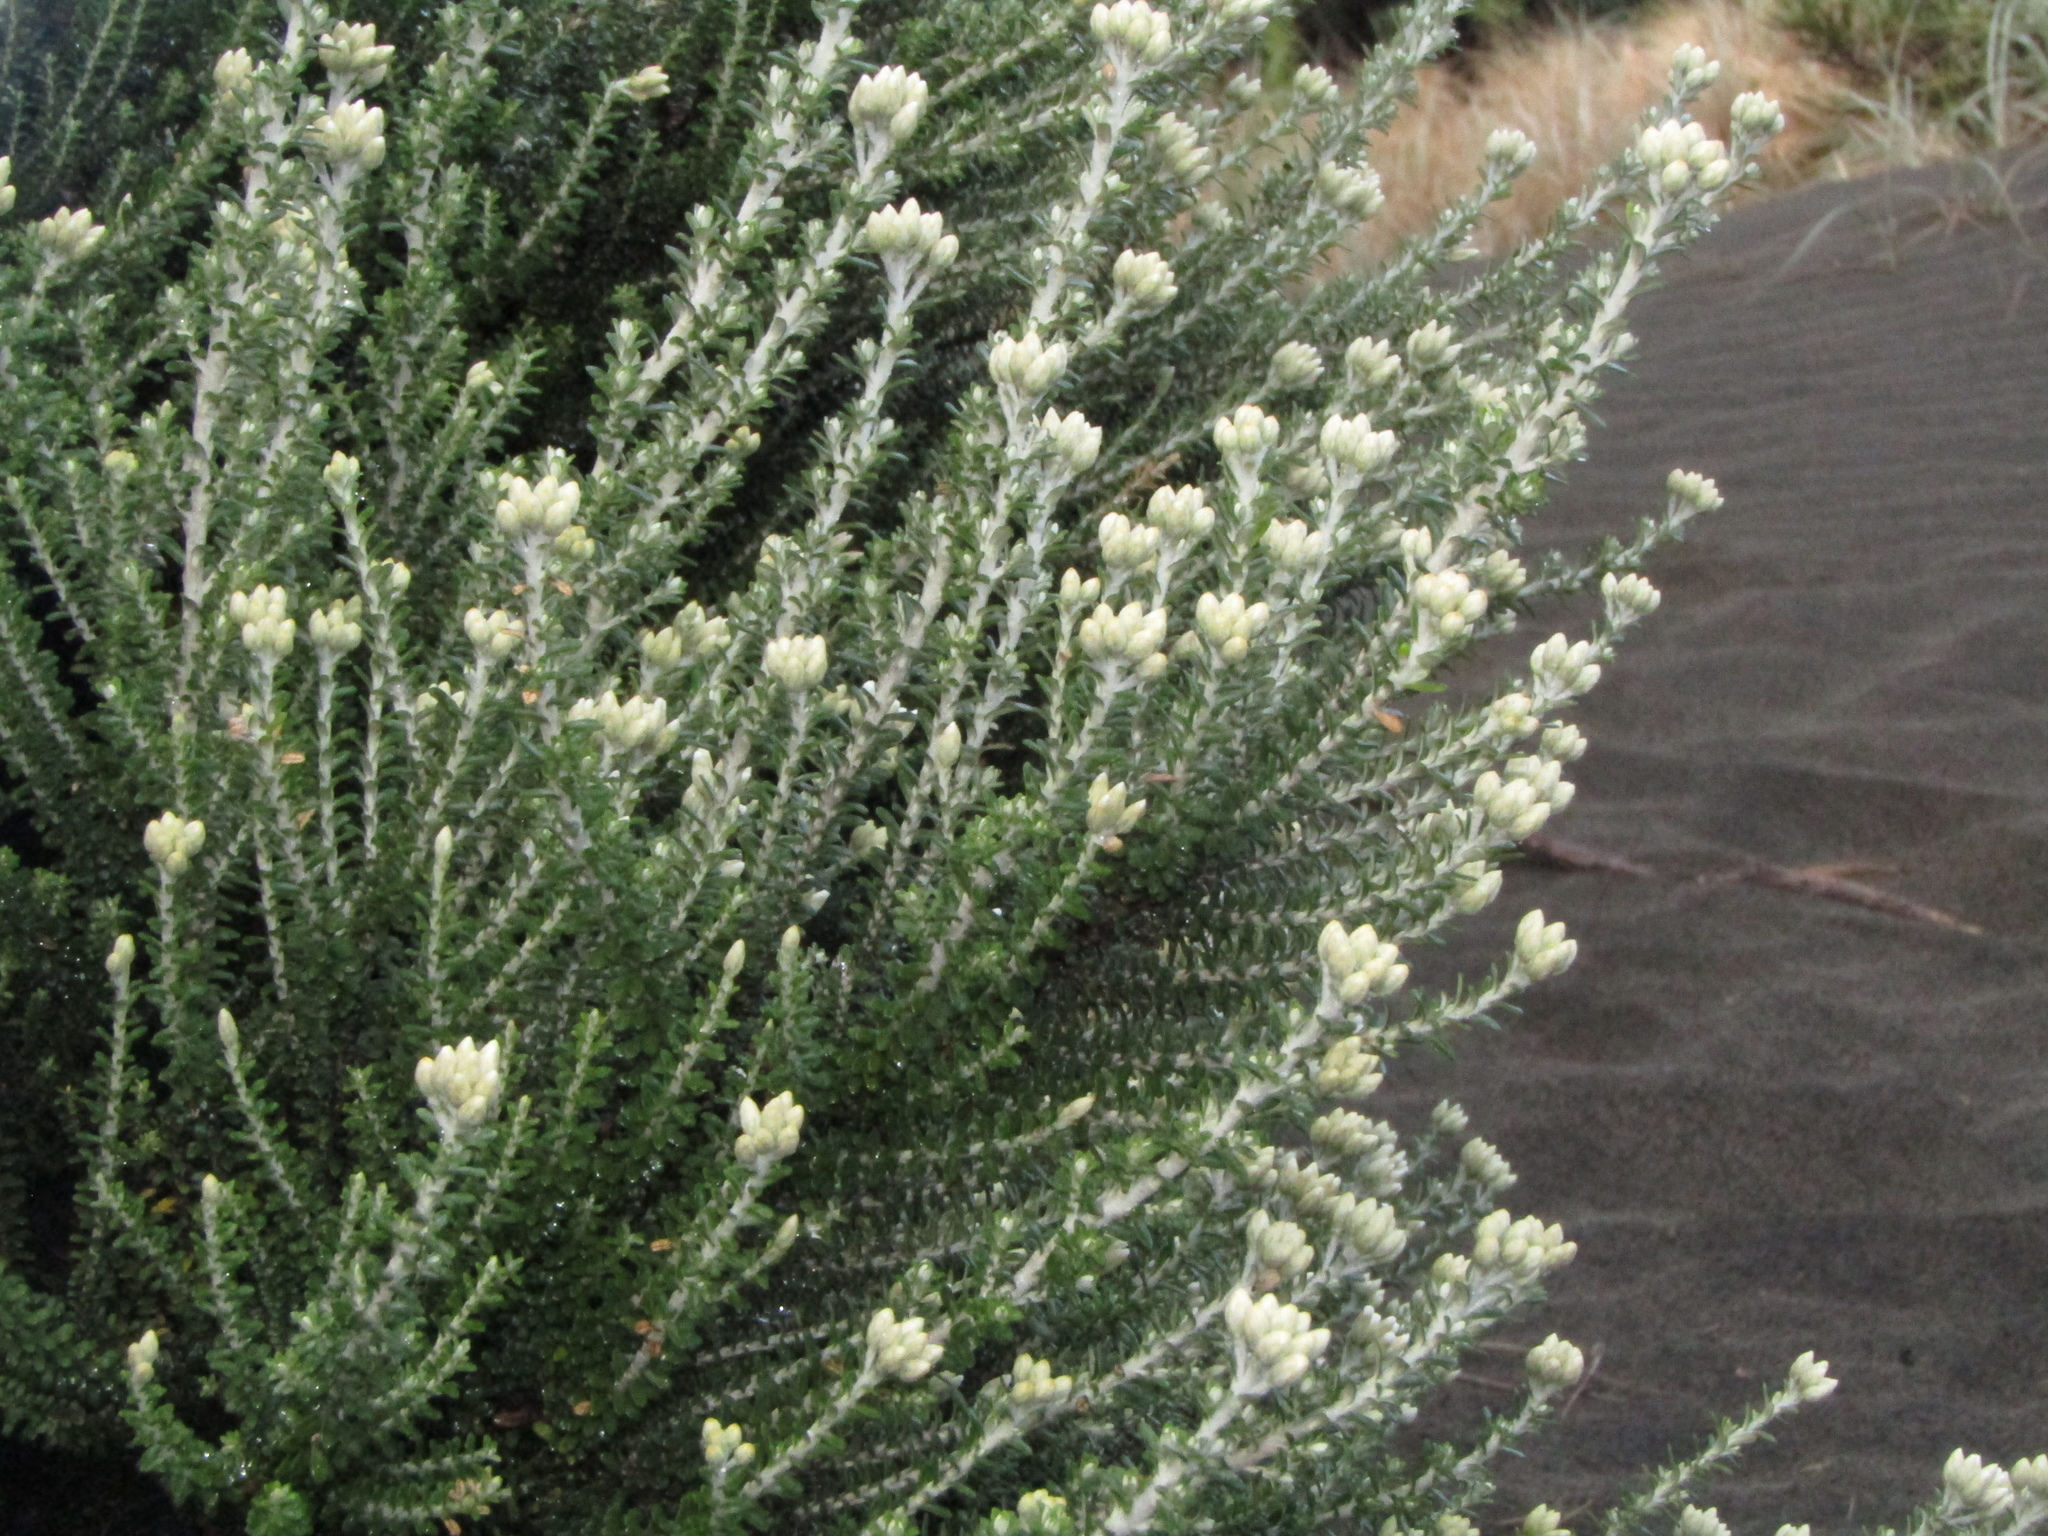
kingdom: Plantae
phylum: Tracheophyta
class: Magnoliopsida
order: Asterales
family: Asteraceae
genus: Ozothamnus
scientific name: Ozothamnus leptophyllus
